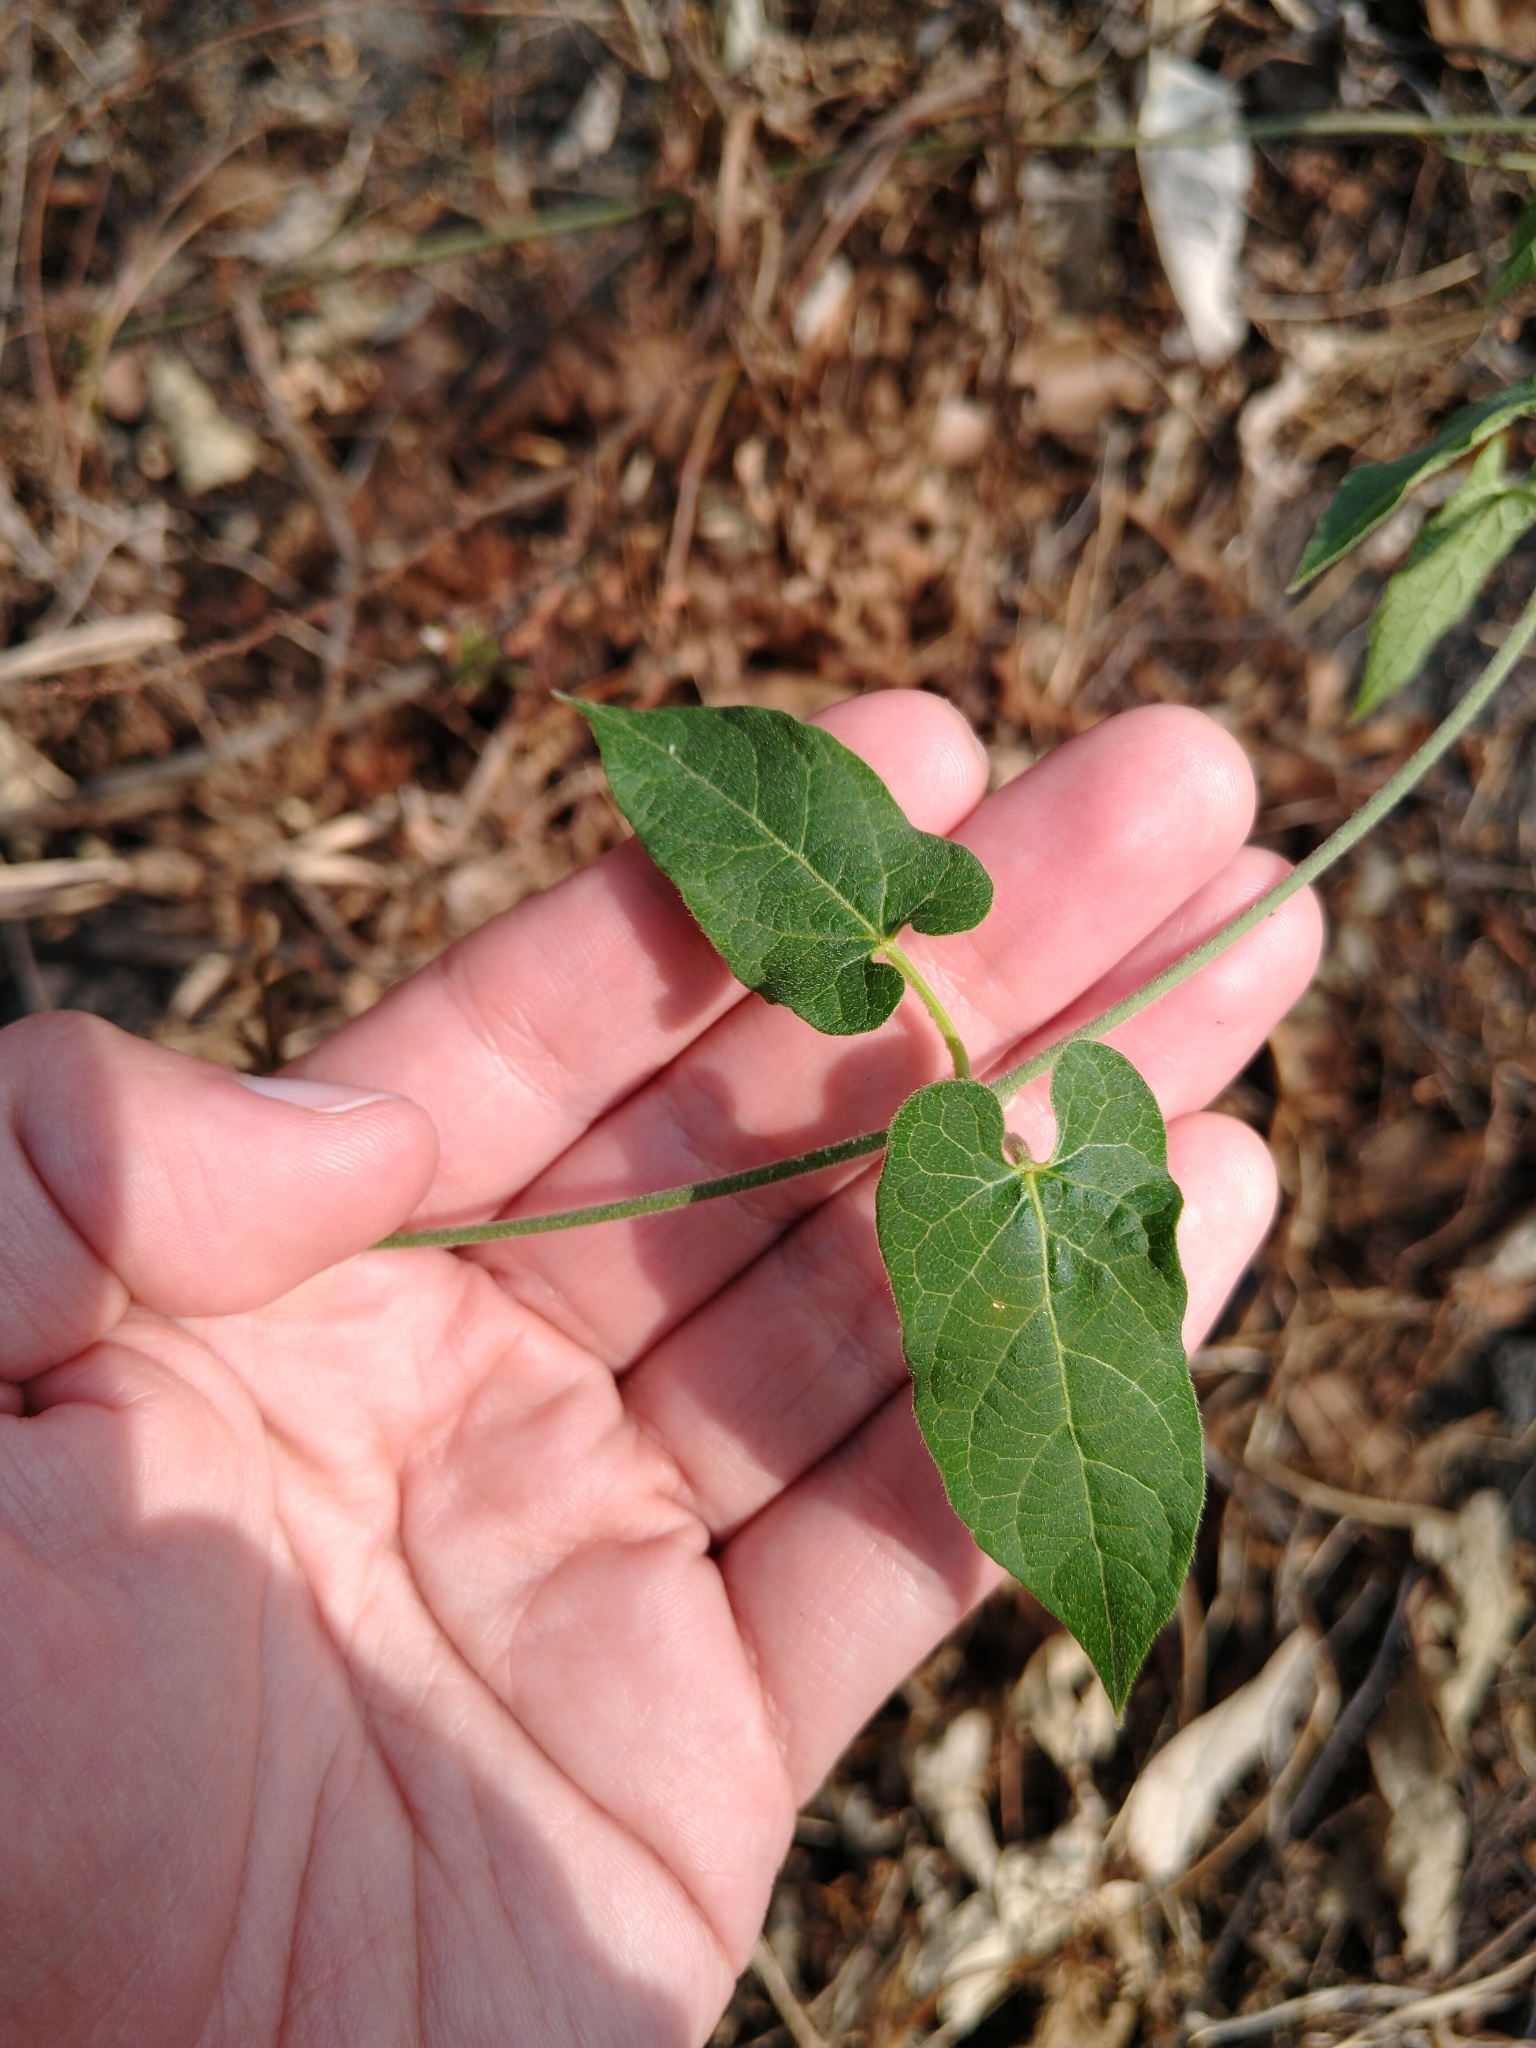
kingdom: Plantae
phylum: Tracheophyta
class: Magnoliopsida
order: Gentianales
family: Apocynaceae
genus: Gonolobus
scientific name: Gonolobus uniflorus
